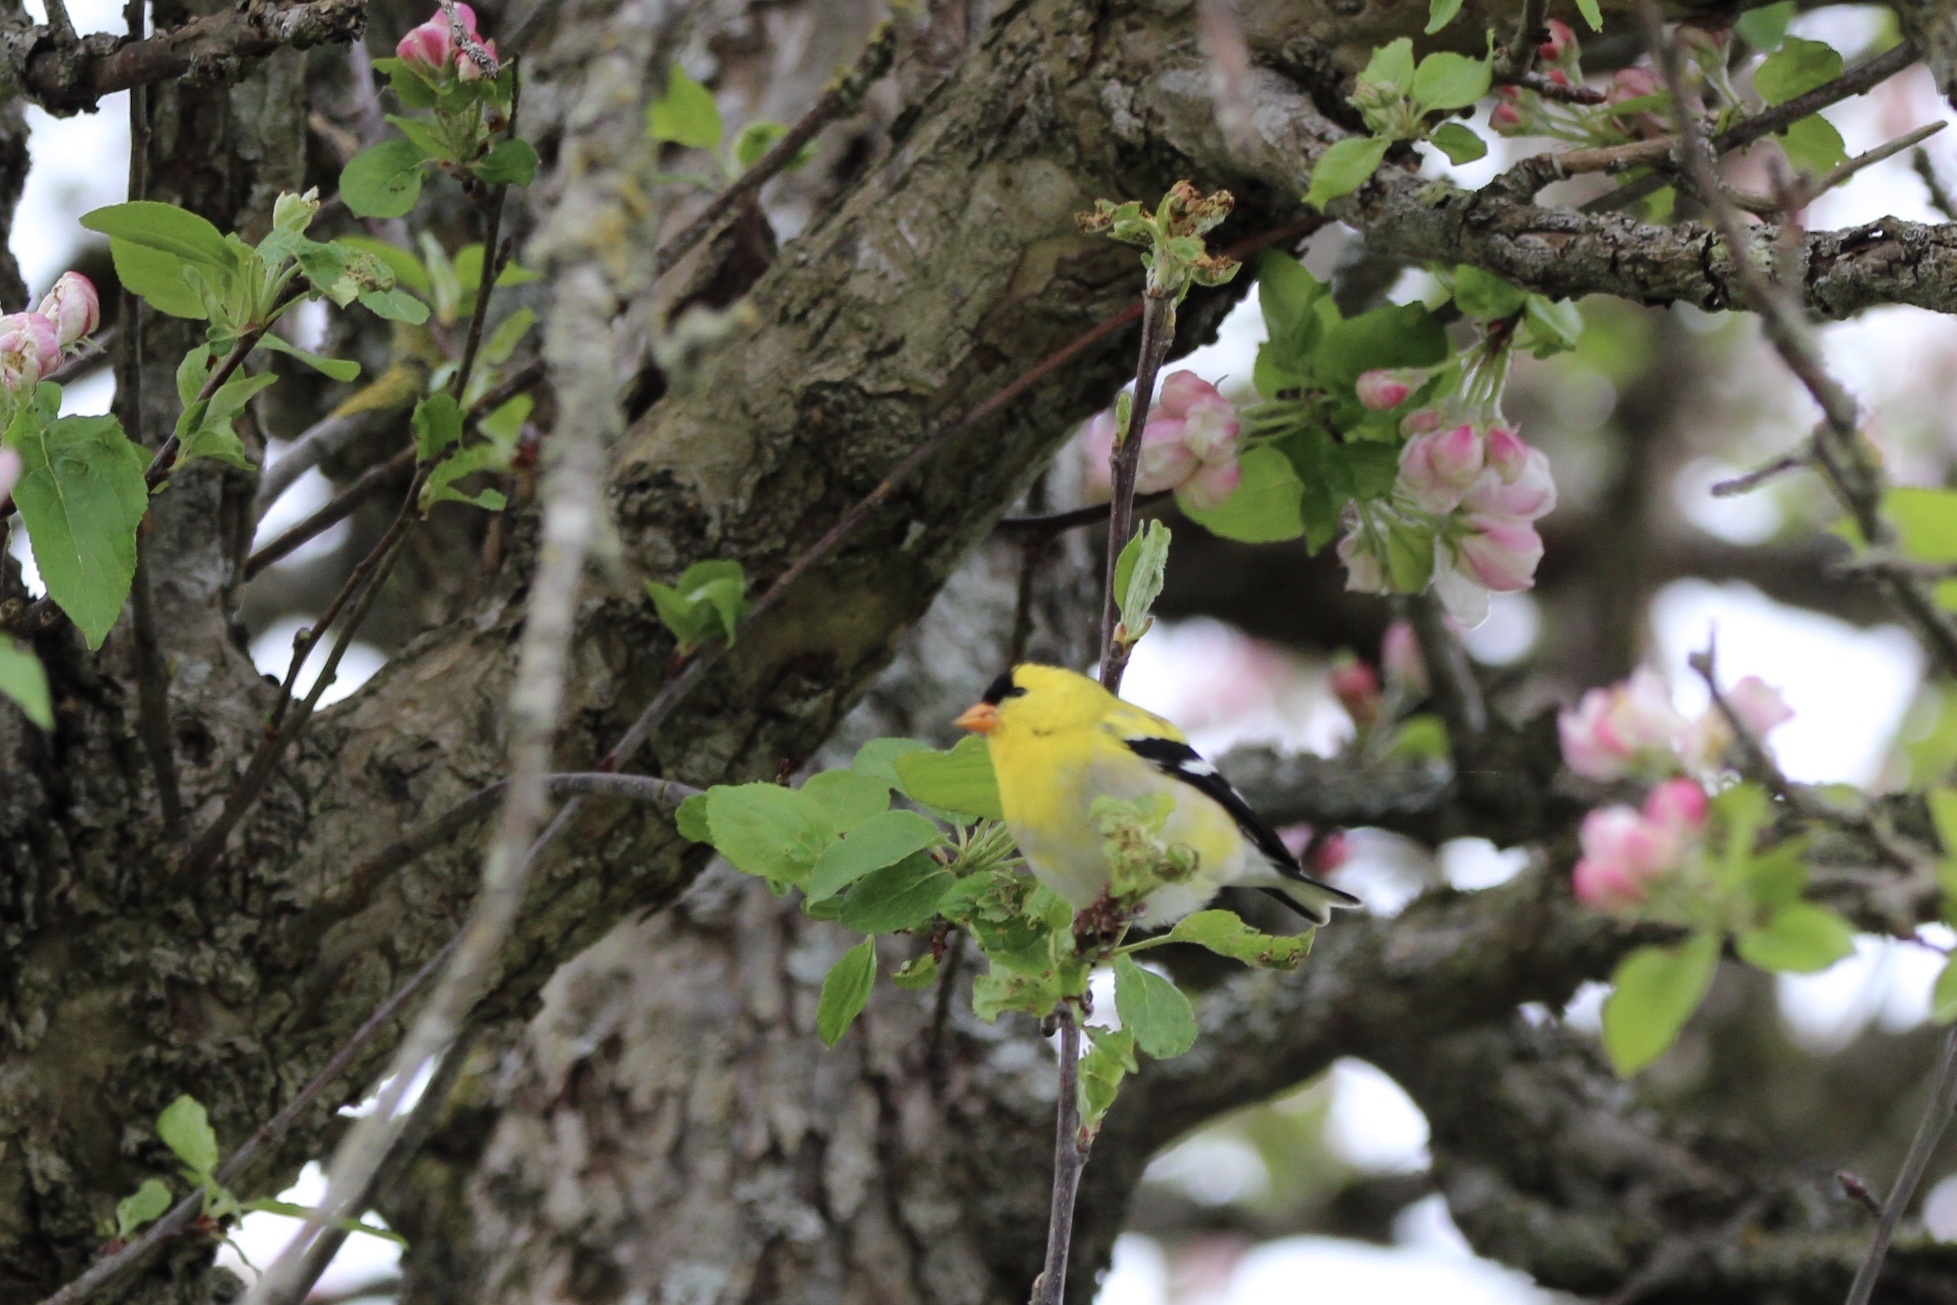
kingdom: Animalia
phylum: Chordata
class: Aves
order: Passeriformes
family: Fringillidae
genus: Spinus
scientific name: Spinus tristis
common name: American goldfinch
